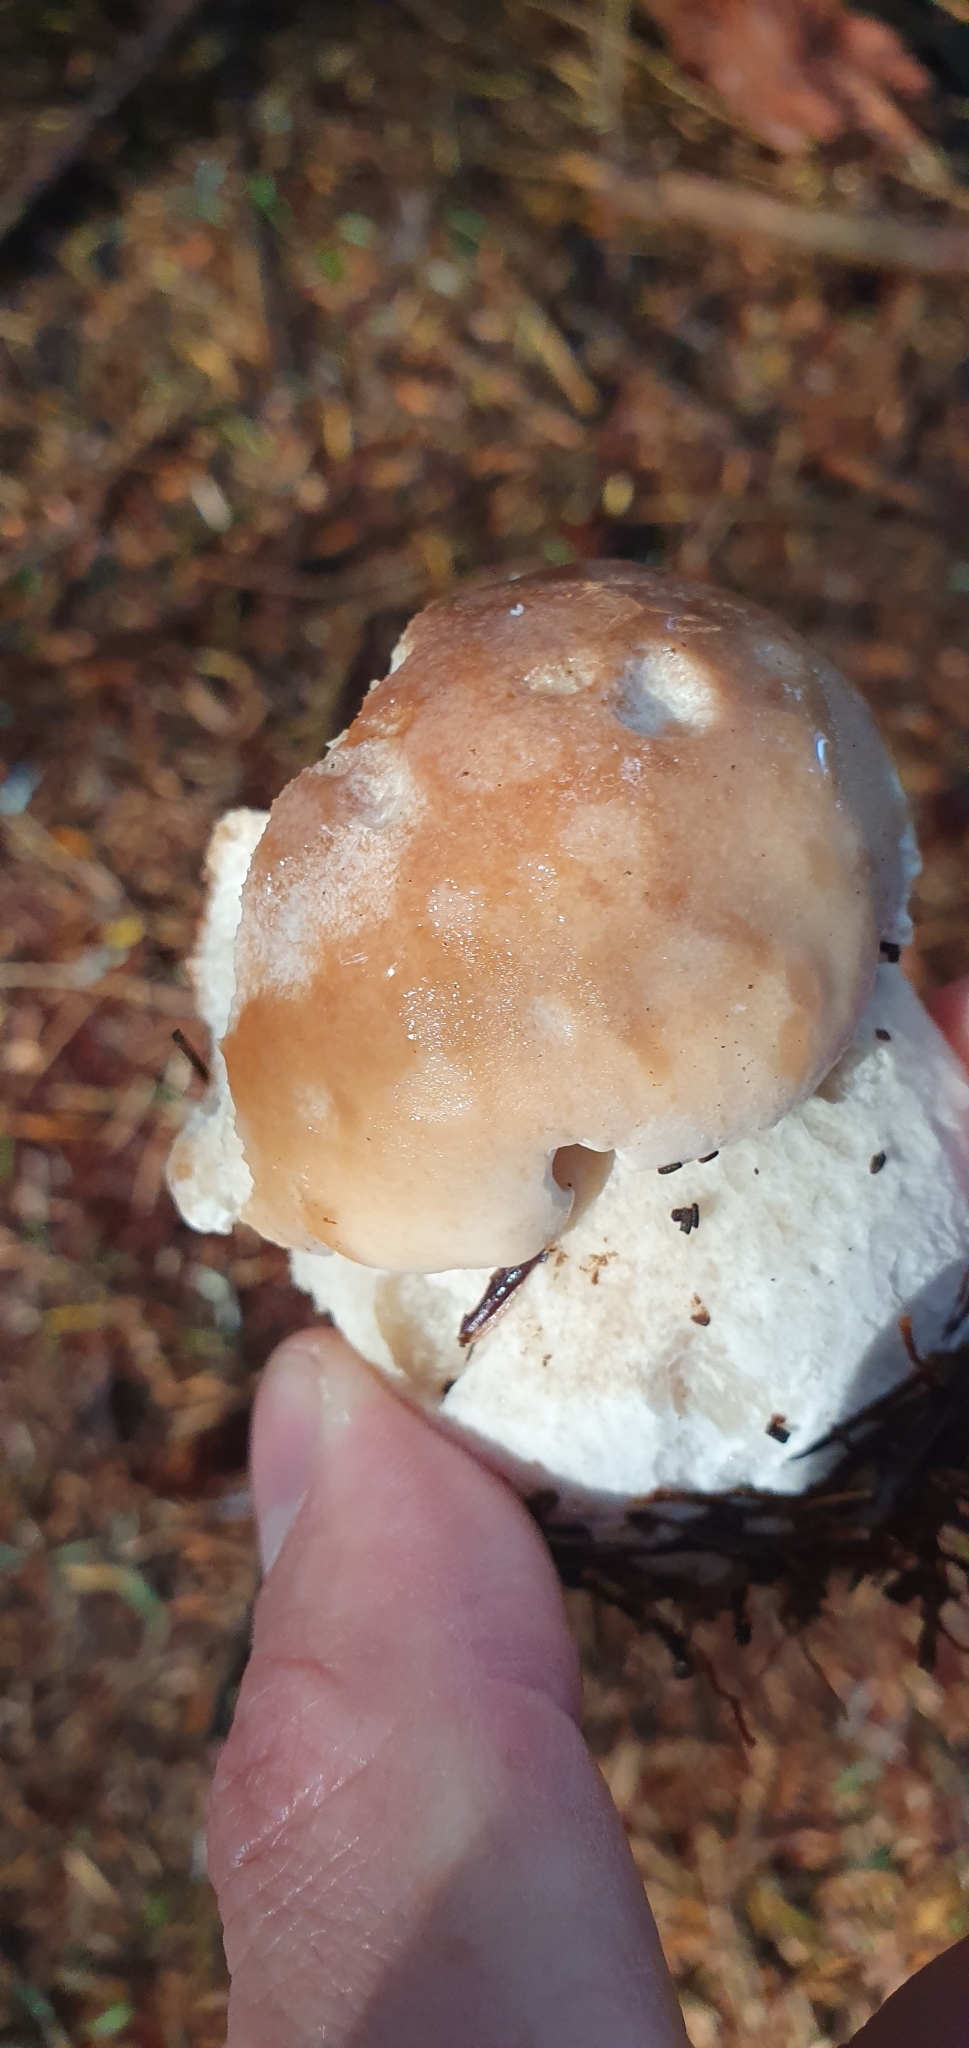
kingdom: Fungi
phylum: Basidiomycota
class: Agaricomycetes
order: Boletales
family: Boletaceae
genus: Boletus
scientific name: Boletus edulis
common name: Cep
